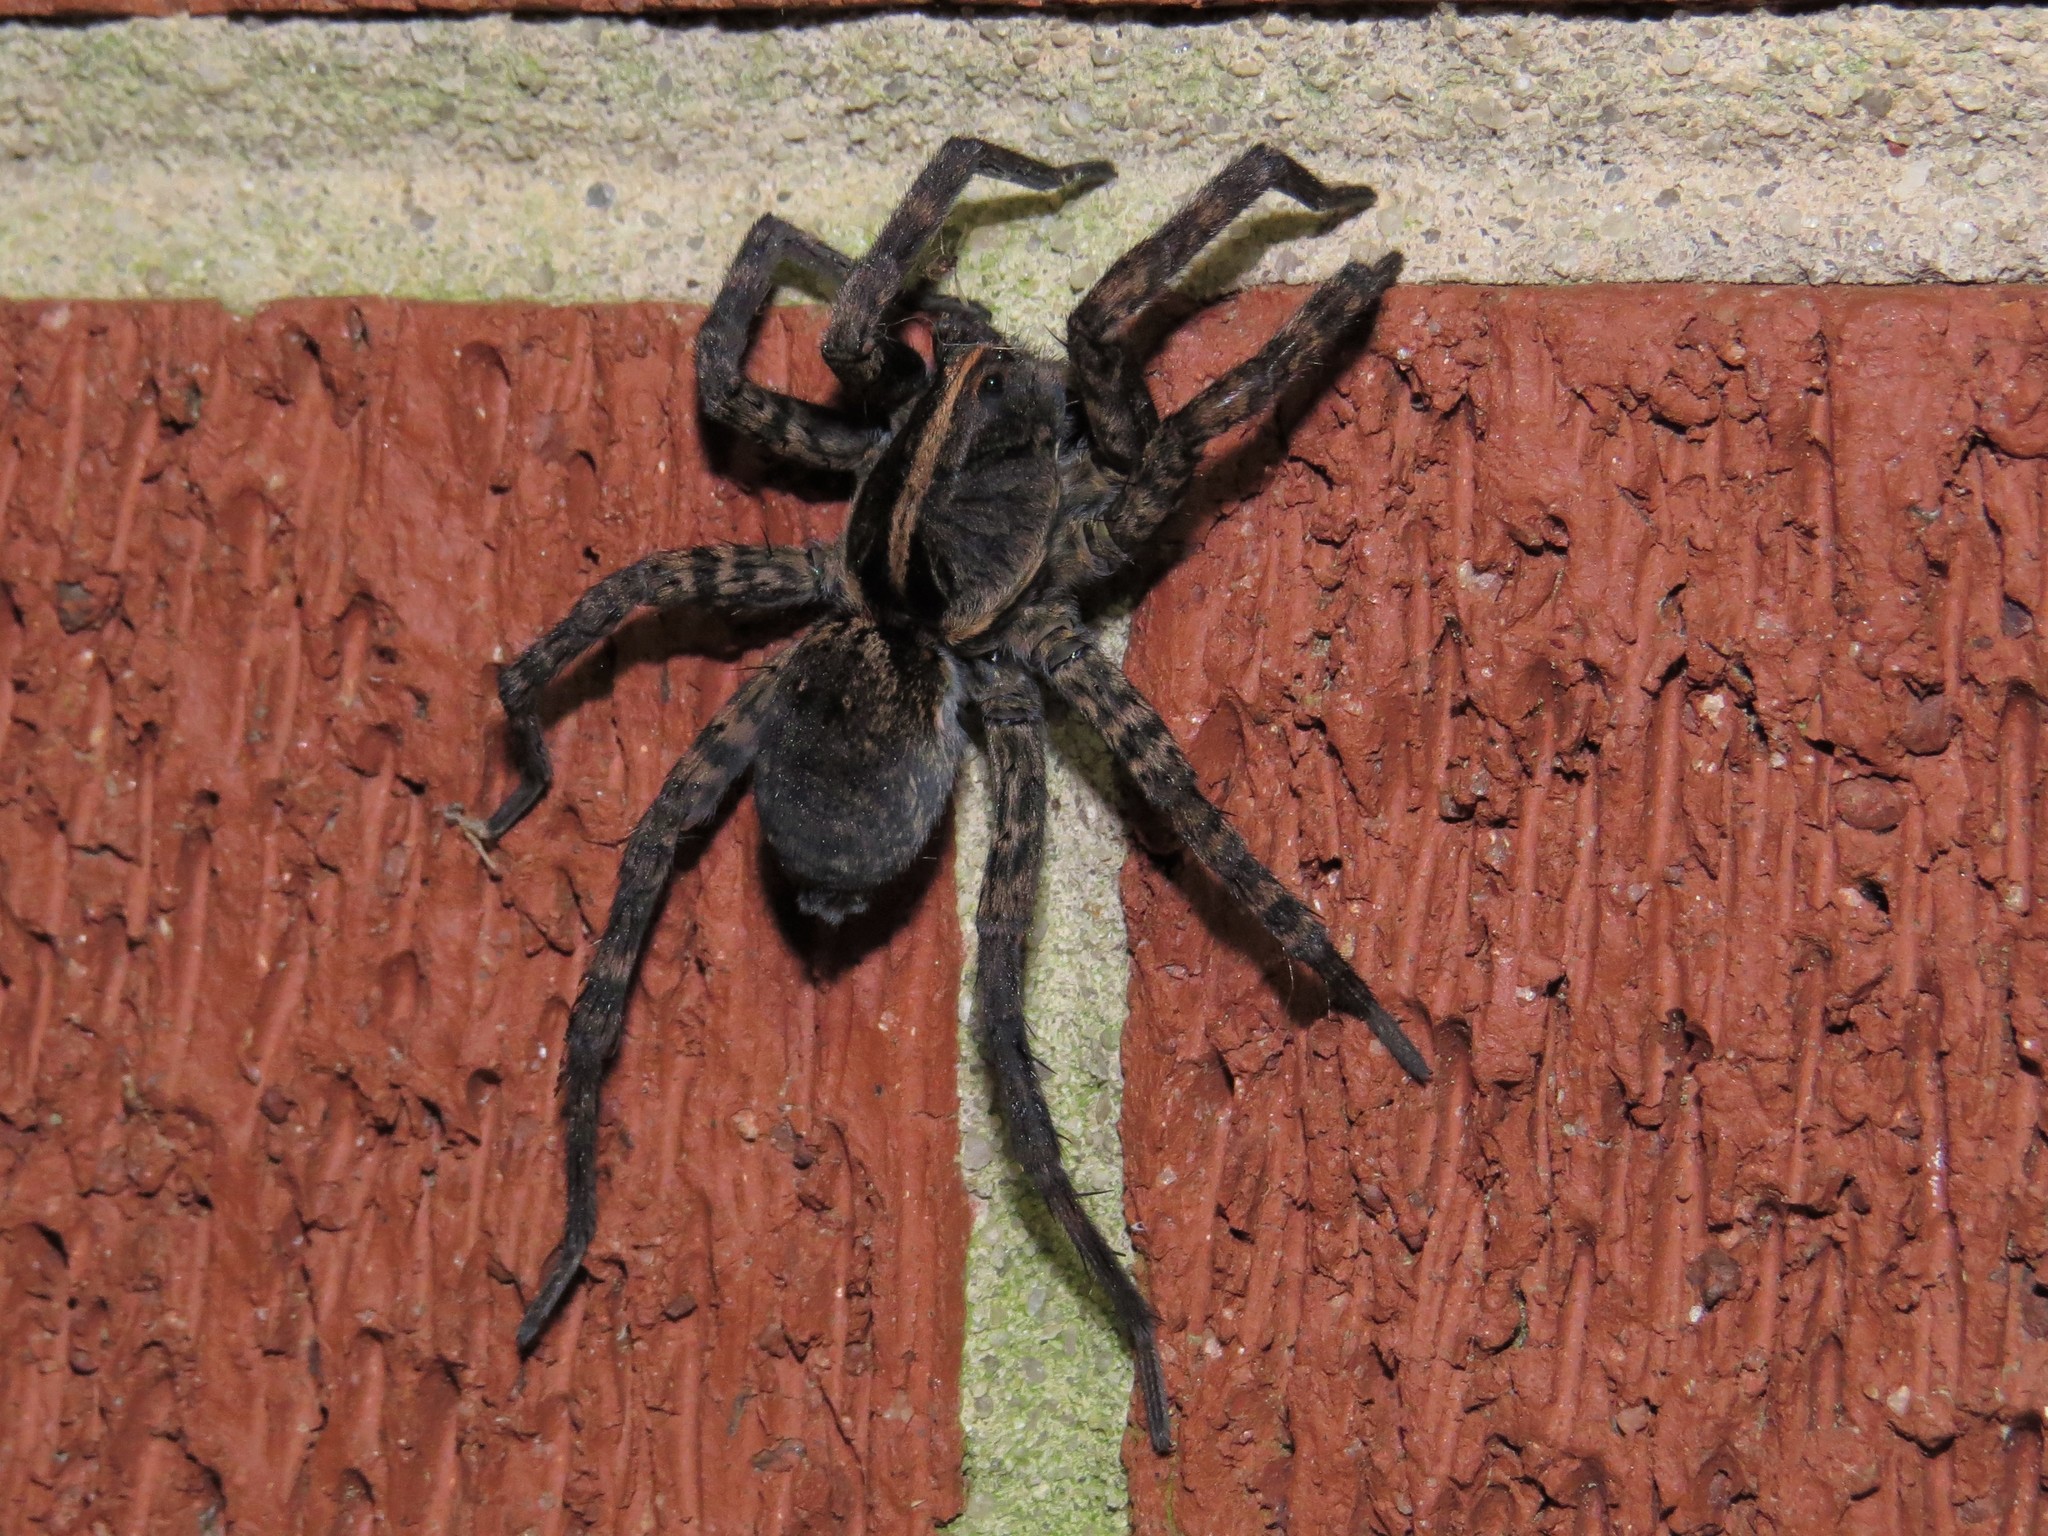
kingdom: Animalia
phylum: Arthropoda
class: Arachnida
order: Araneae
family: Lycosidae
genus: Tigrosa
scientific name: Tigrosa georgicola
